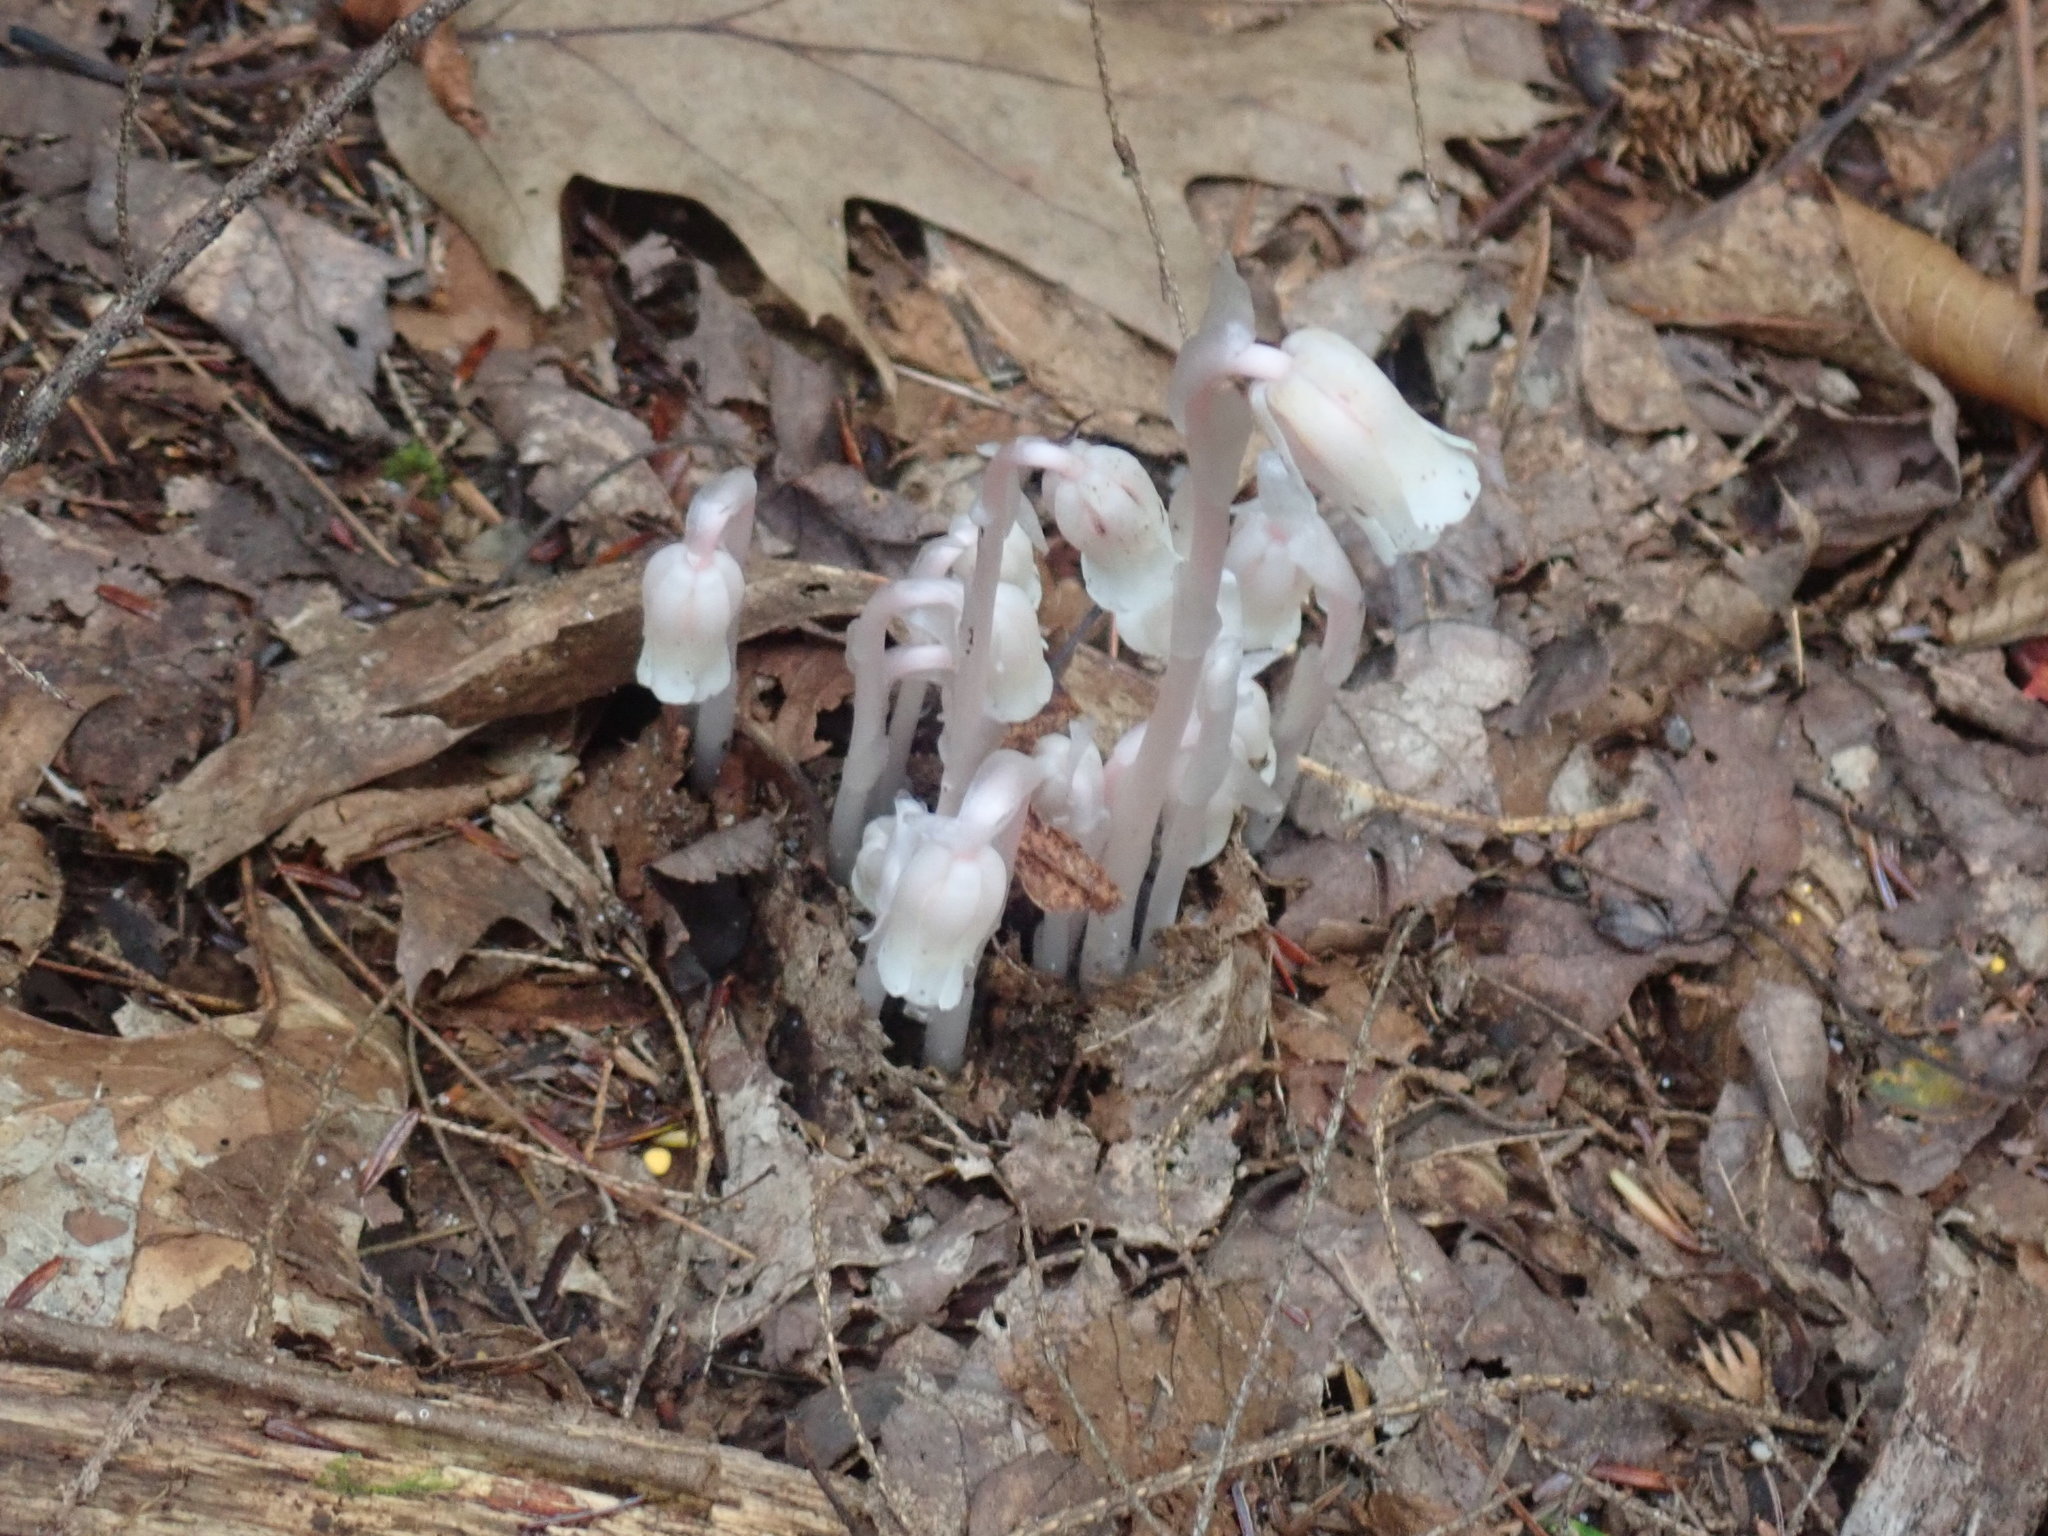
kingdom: Plantae
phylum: Tracheophyta
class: Magnoliopsida
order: Ericales
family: Ericaceae
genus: Monotropa
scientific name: Monotropa uniflora
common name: Convulsion root
